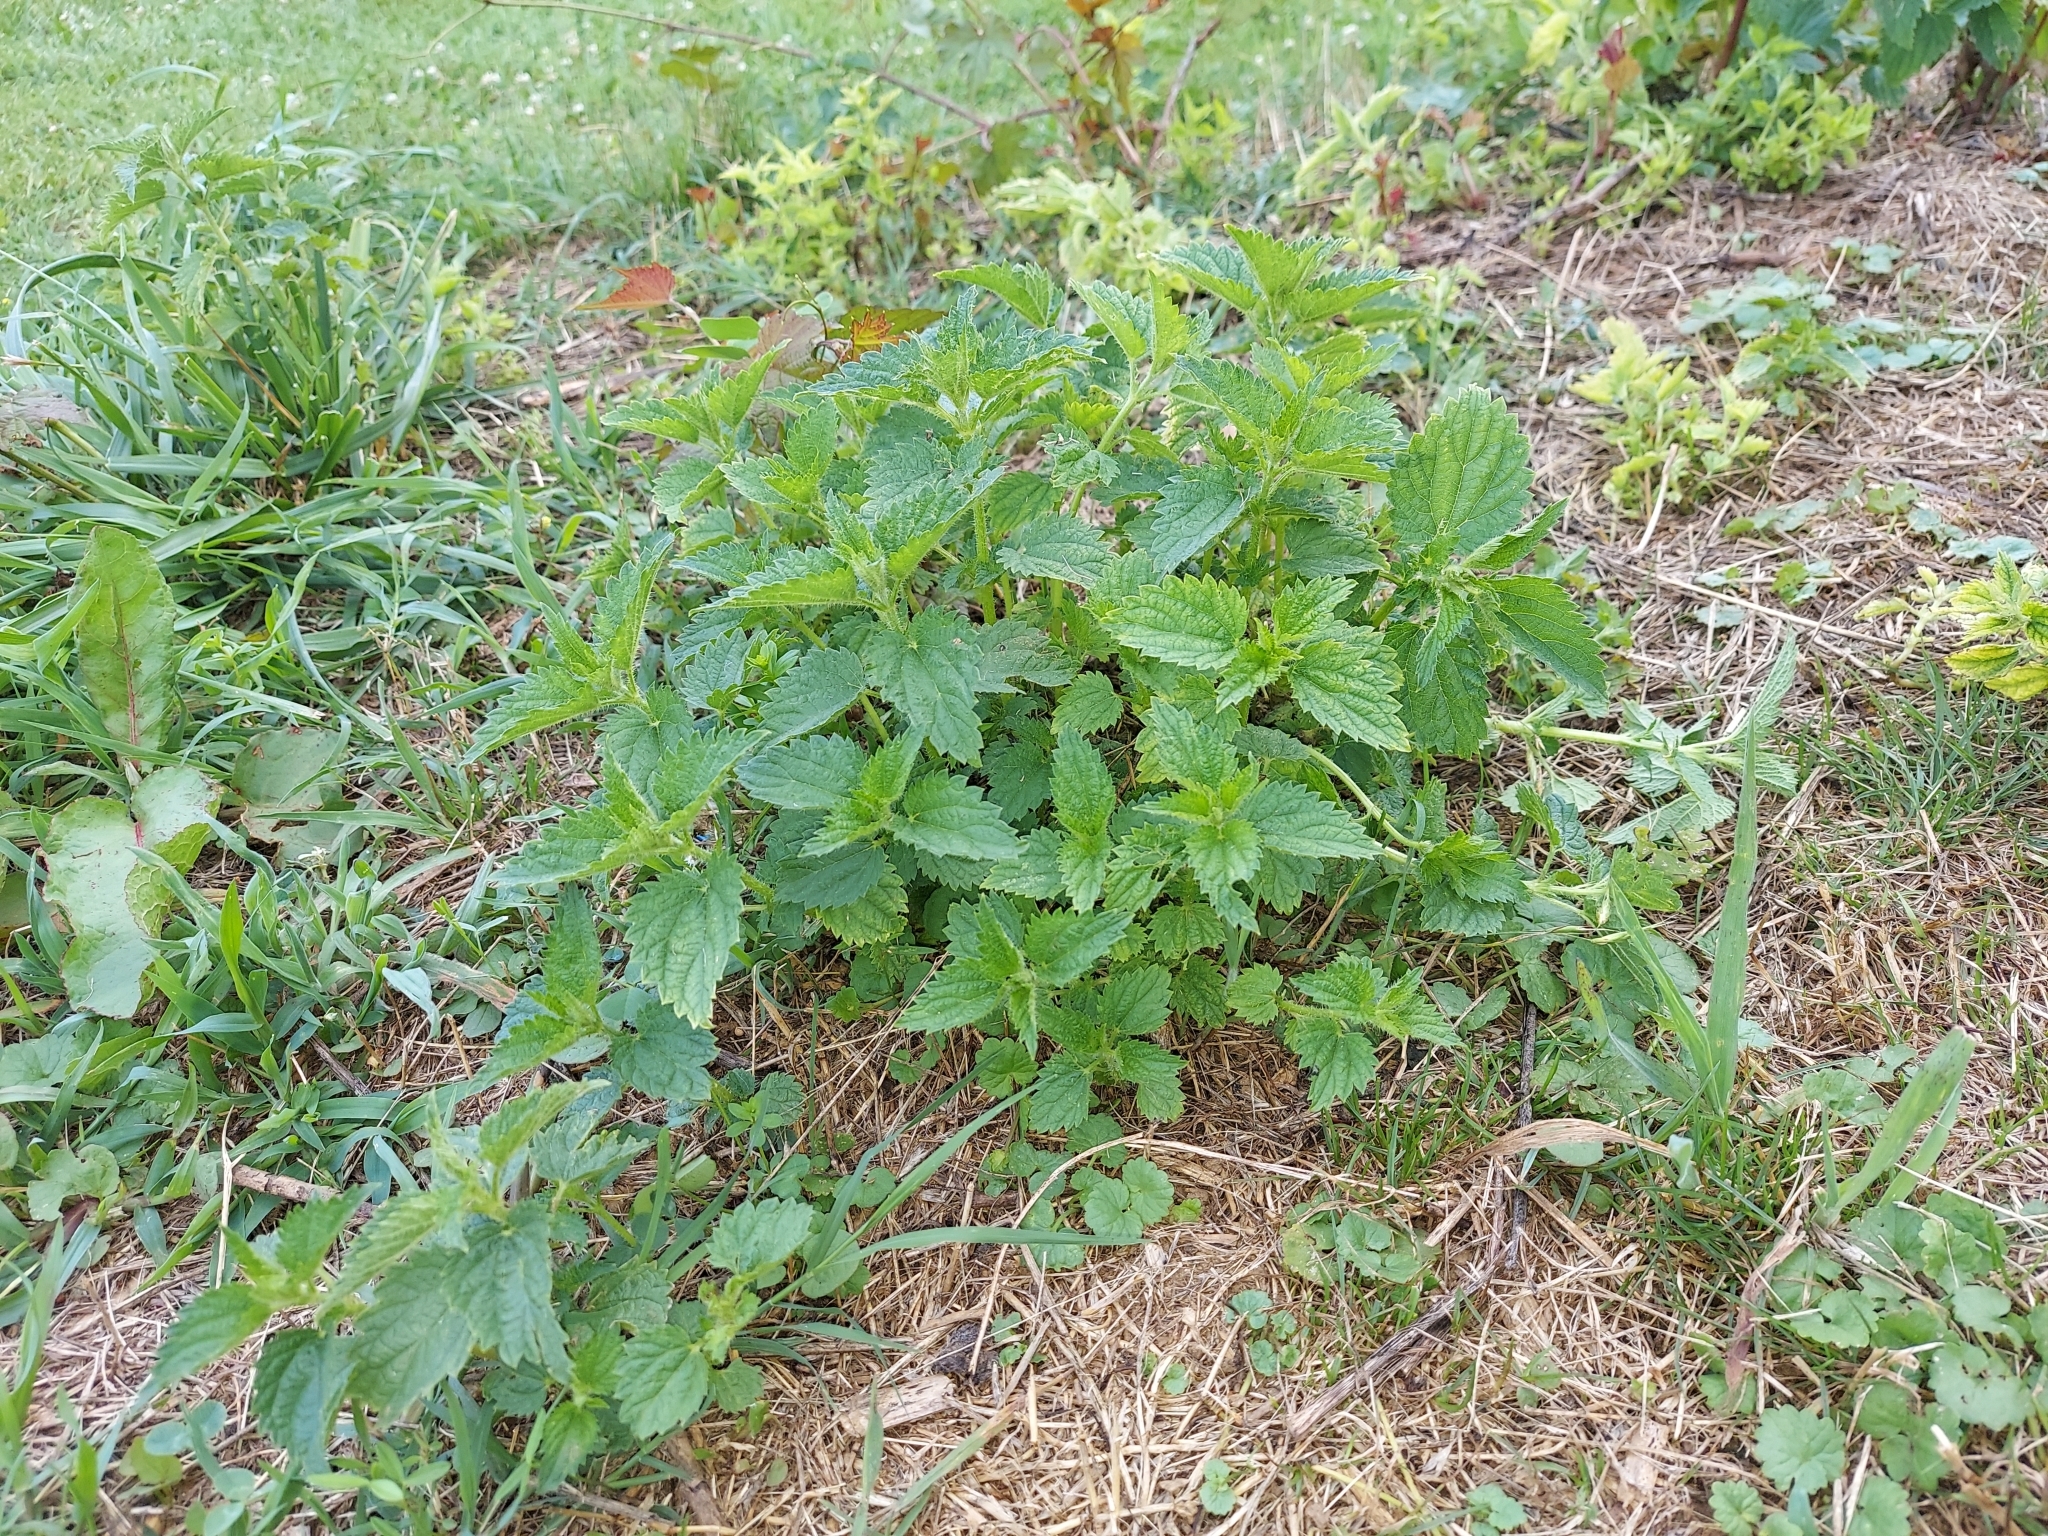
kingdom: Plantae
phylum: Tracheophyta
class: Magnoliopsida
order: Rosales
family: Urticaceae
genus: Urtica
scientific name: Urtica dioica
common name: Common nettle
